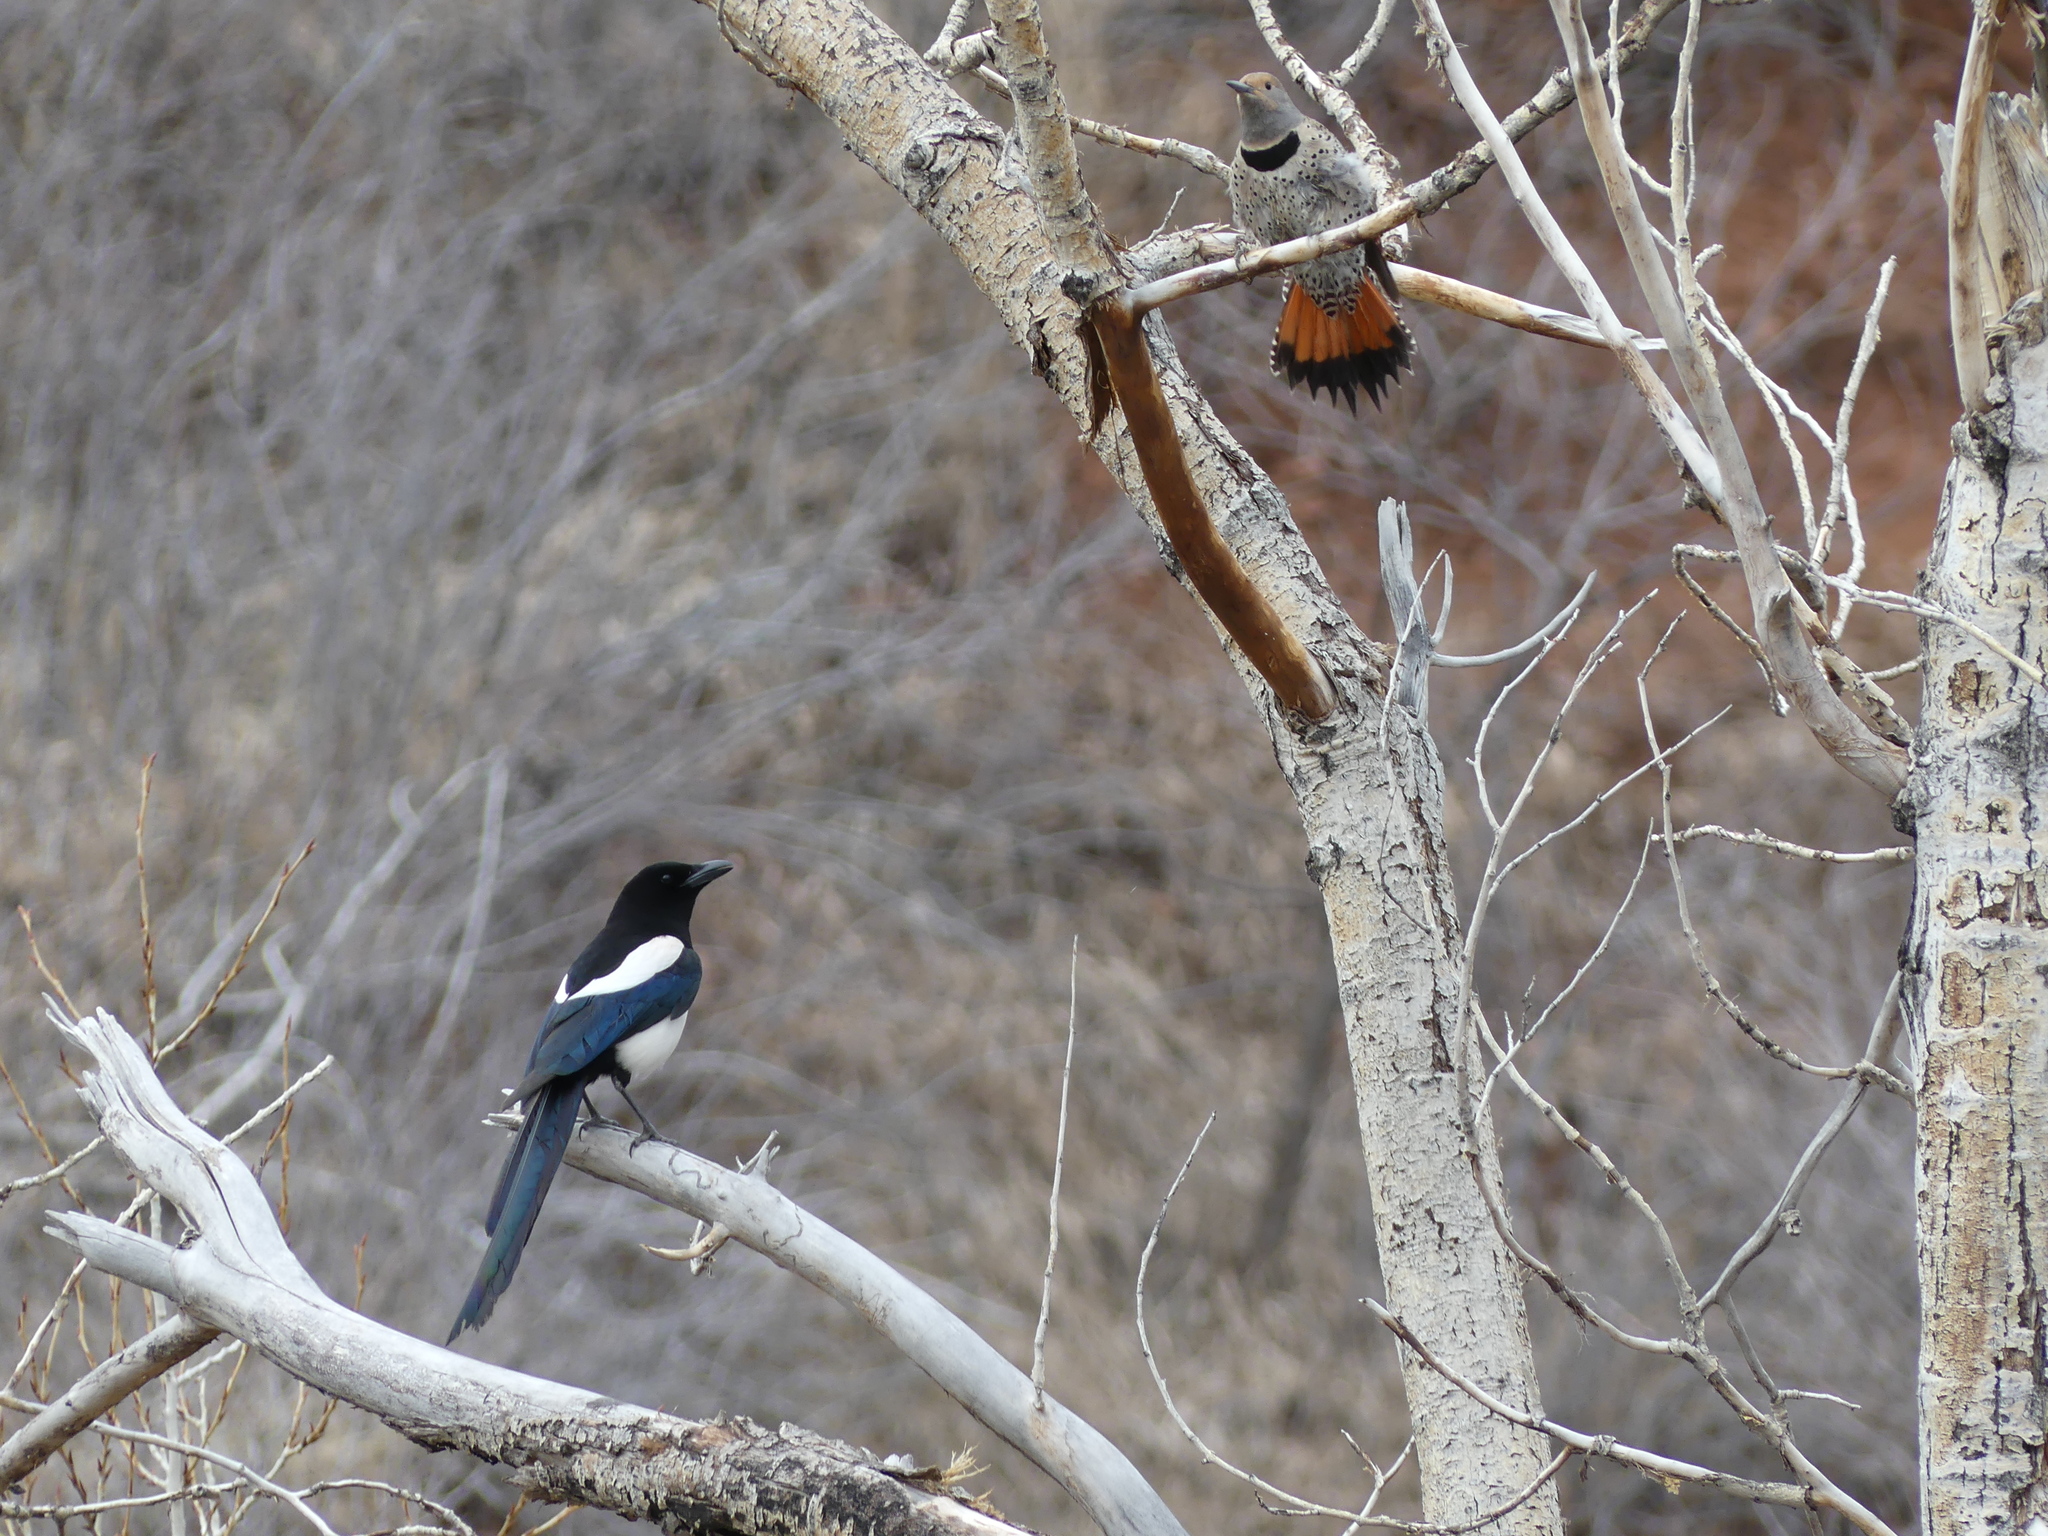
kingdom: Animalia
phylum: Chordata
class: Aves
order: Passeriformes
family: Corvidae
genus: Pica
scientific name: Pica hudsonia
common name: Black-billed magpie
